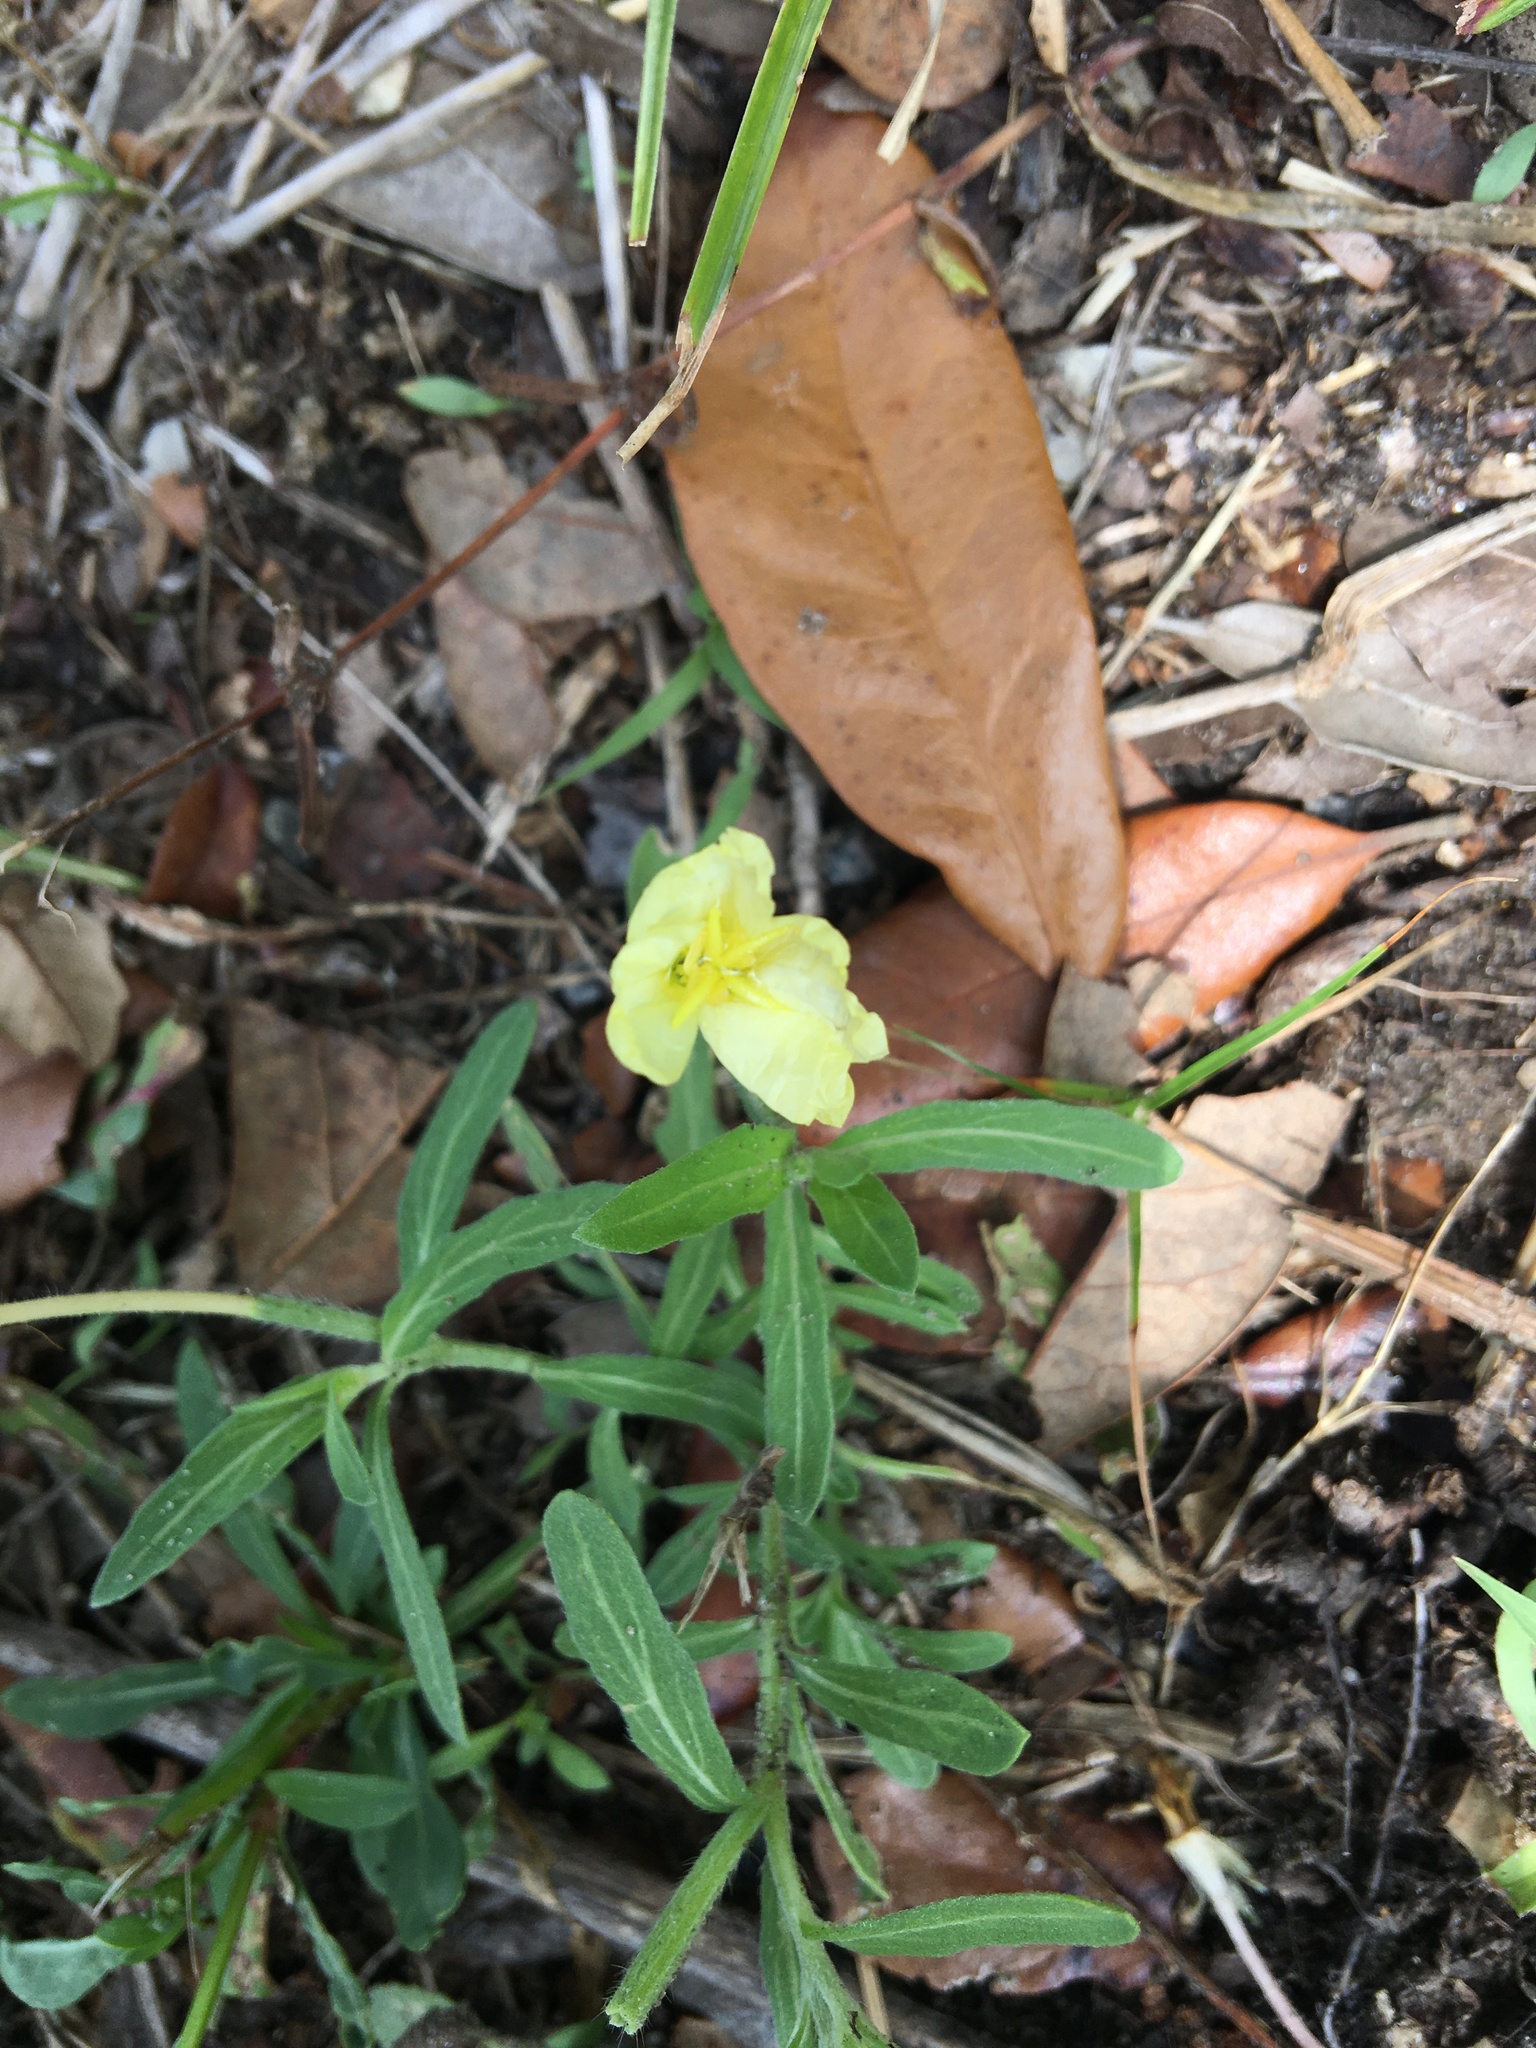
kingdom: Plantae
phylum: Tracheophyta
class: Magnoliopsida
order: Myrtales
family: Onagraceae
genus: Oenothera
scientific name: Oenothera laciniata
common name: Cut-leaved evening-primrose
